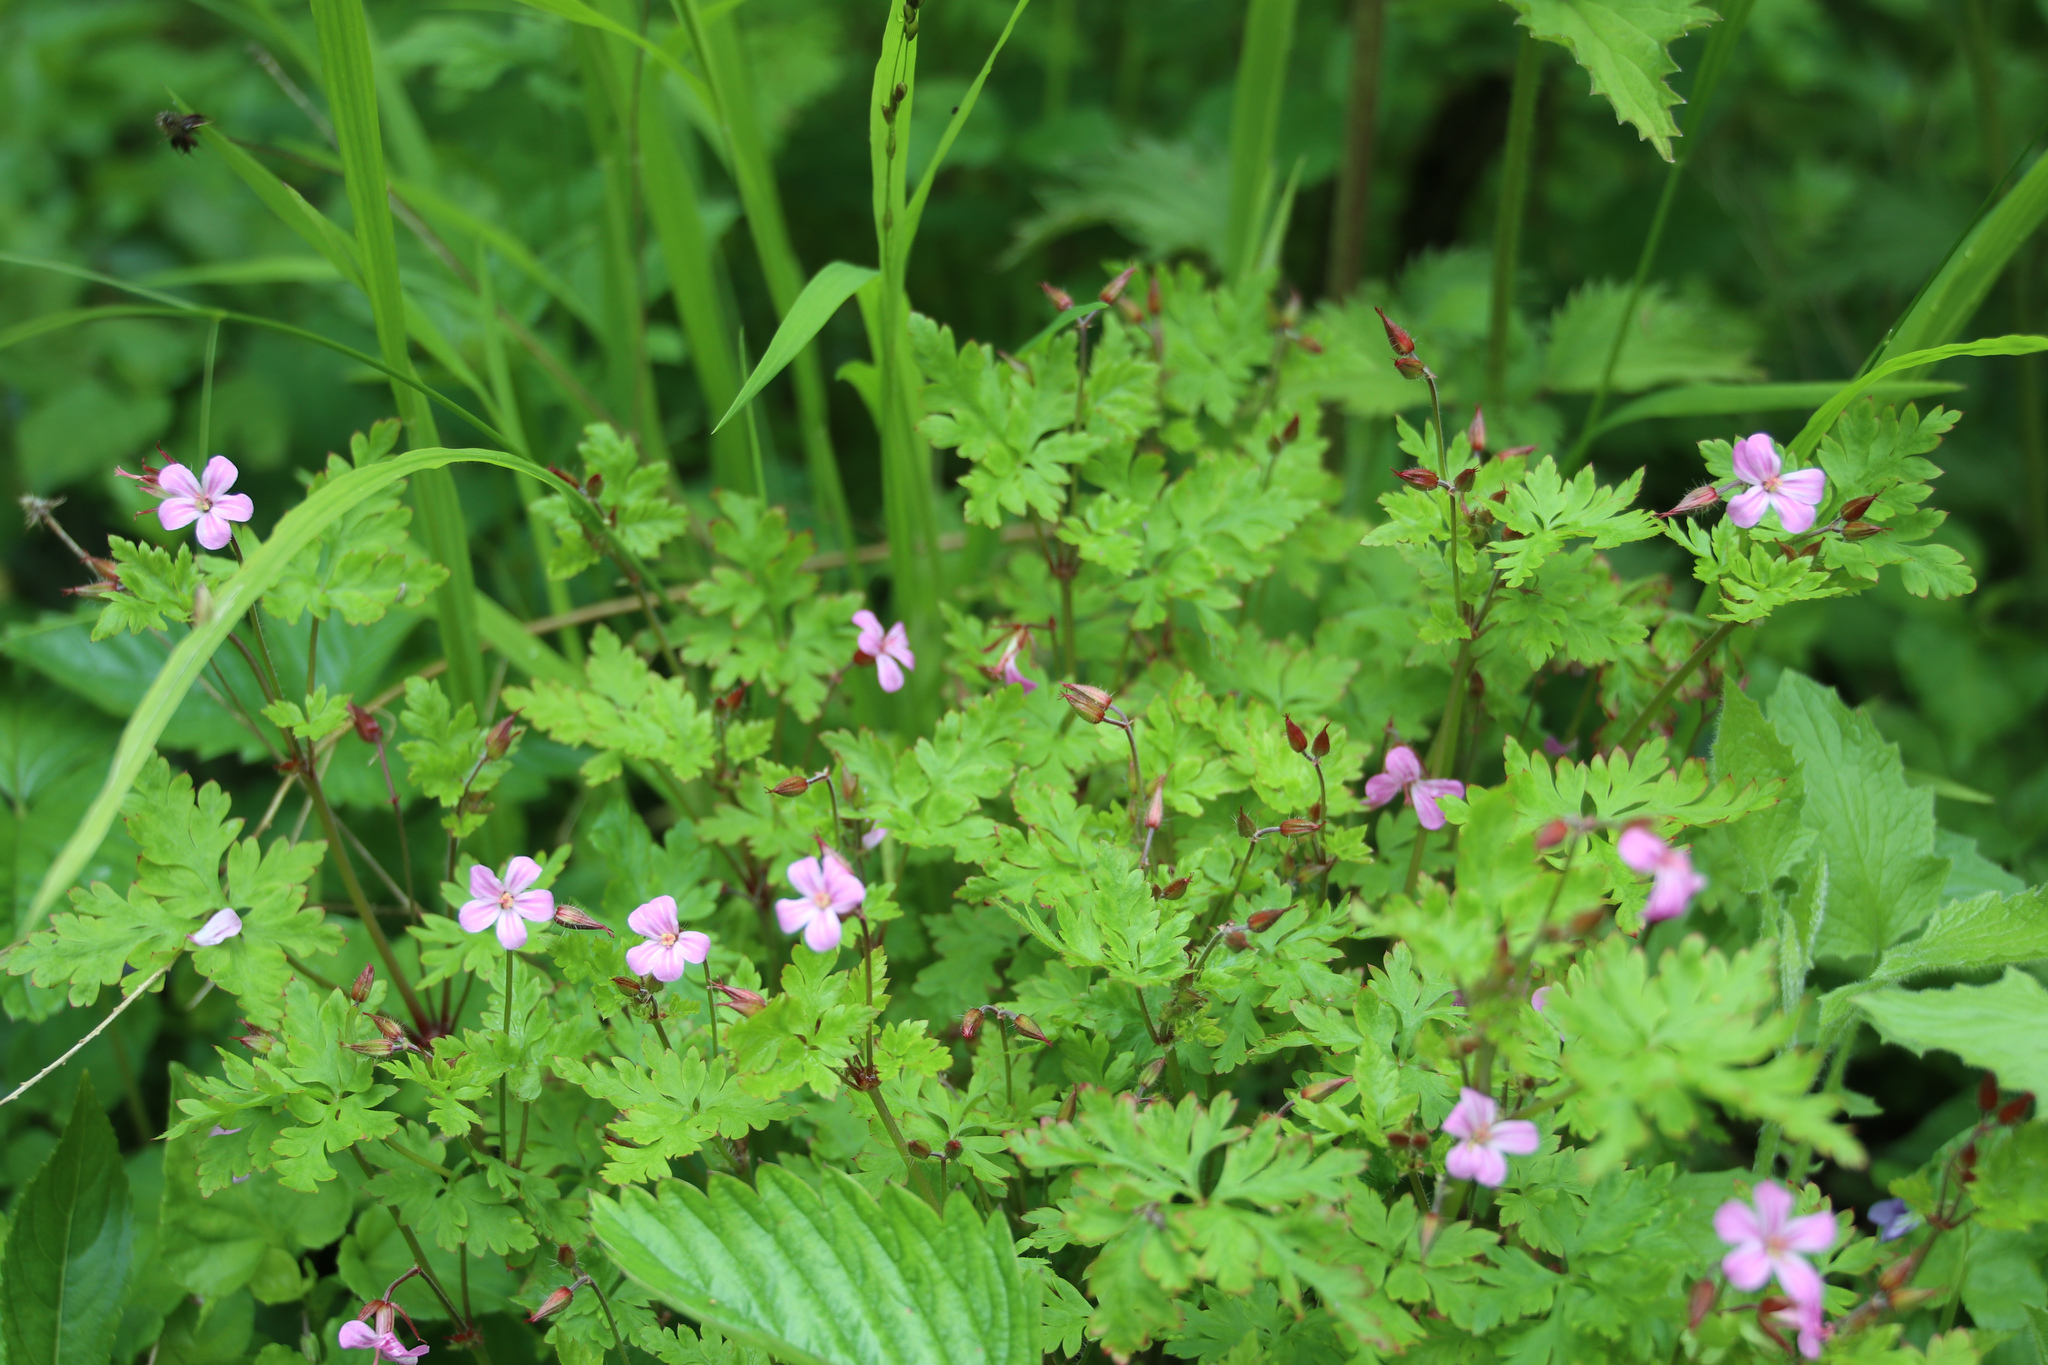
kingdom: Plantae
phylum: Tracheophyta
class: Magnoliopsida
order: Geraniales
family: Geraniaceae
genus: Geranium
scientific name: Geranium robertianum
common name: Herb-robert
